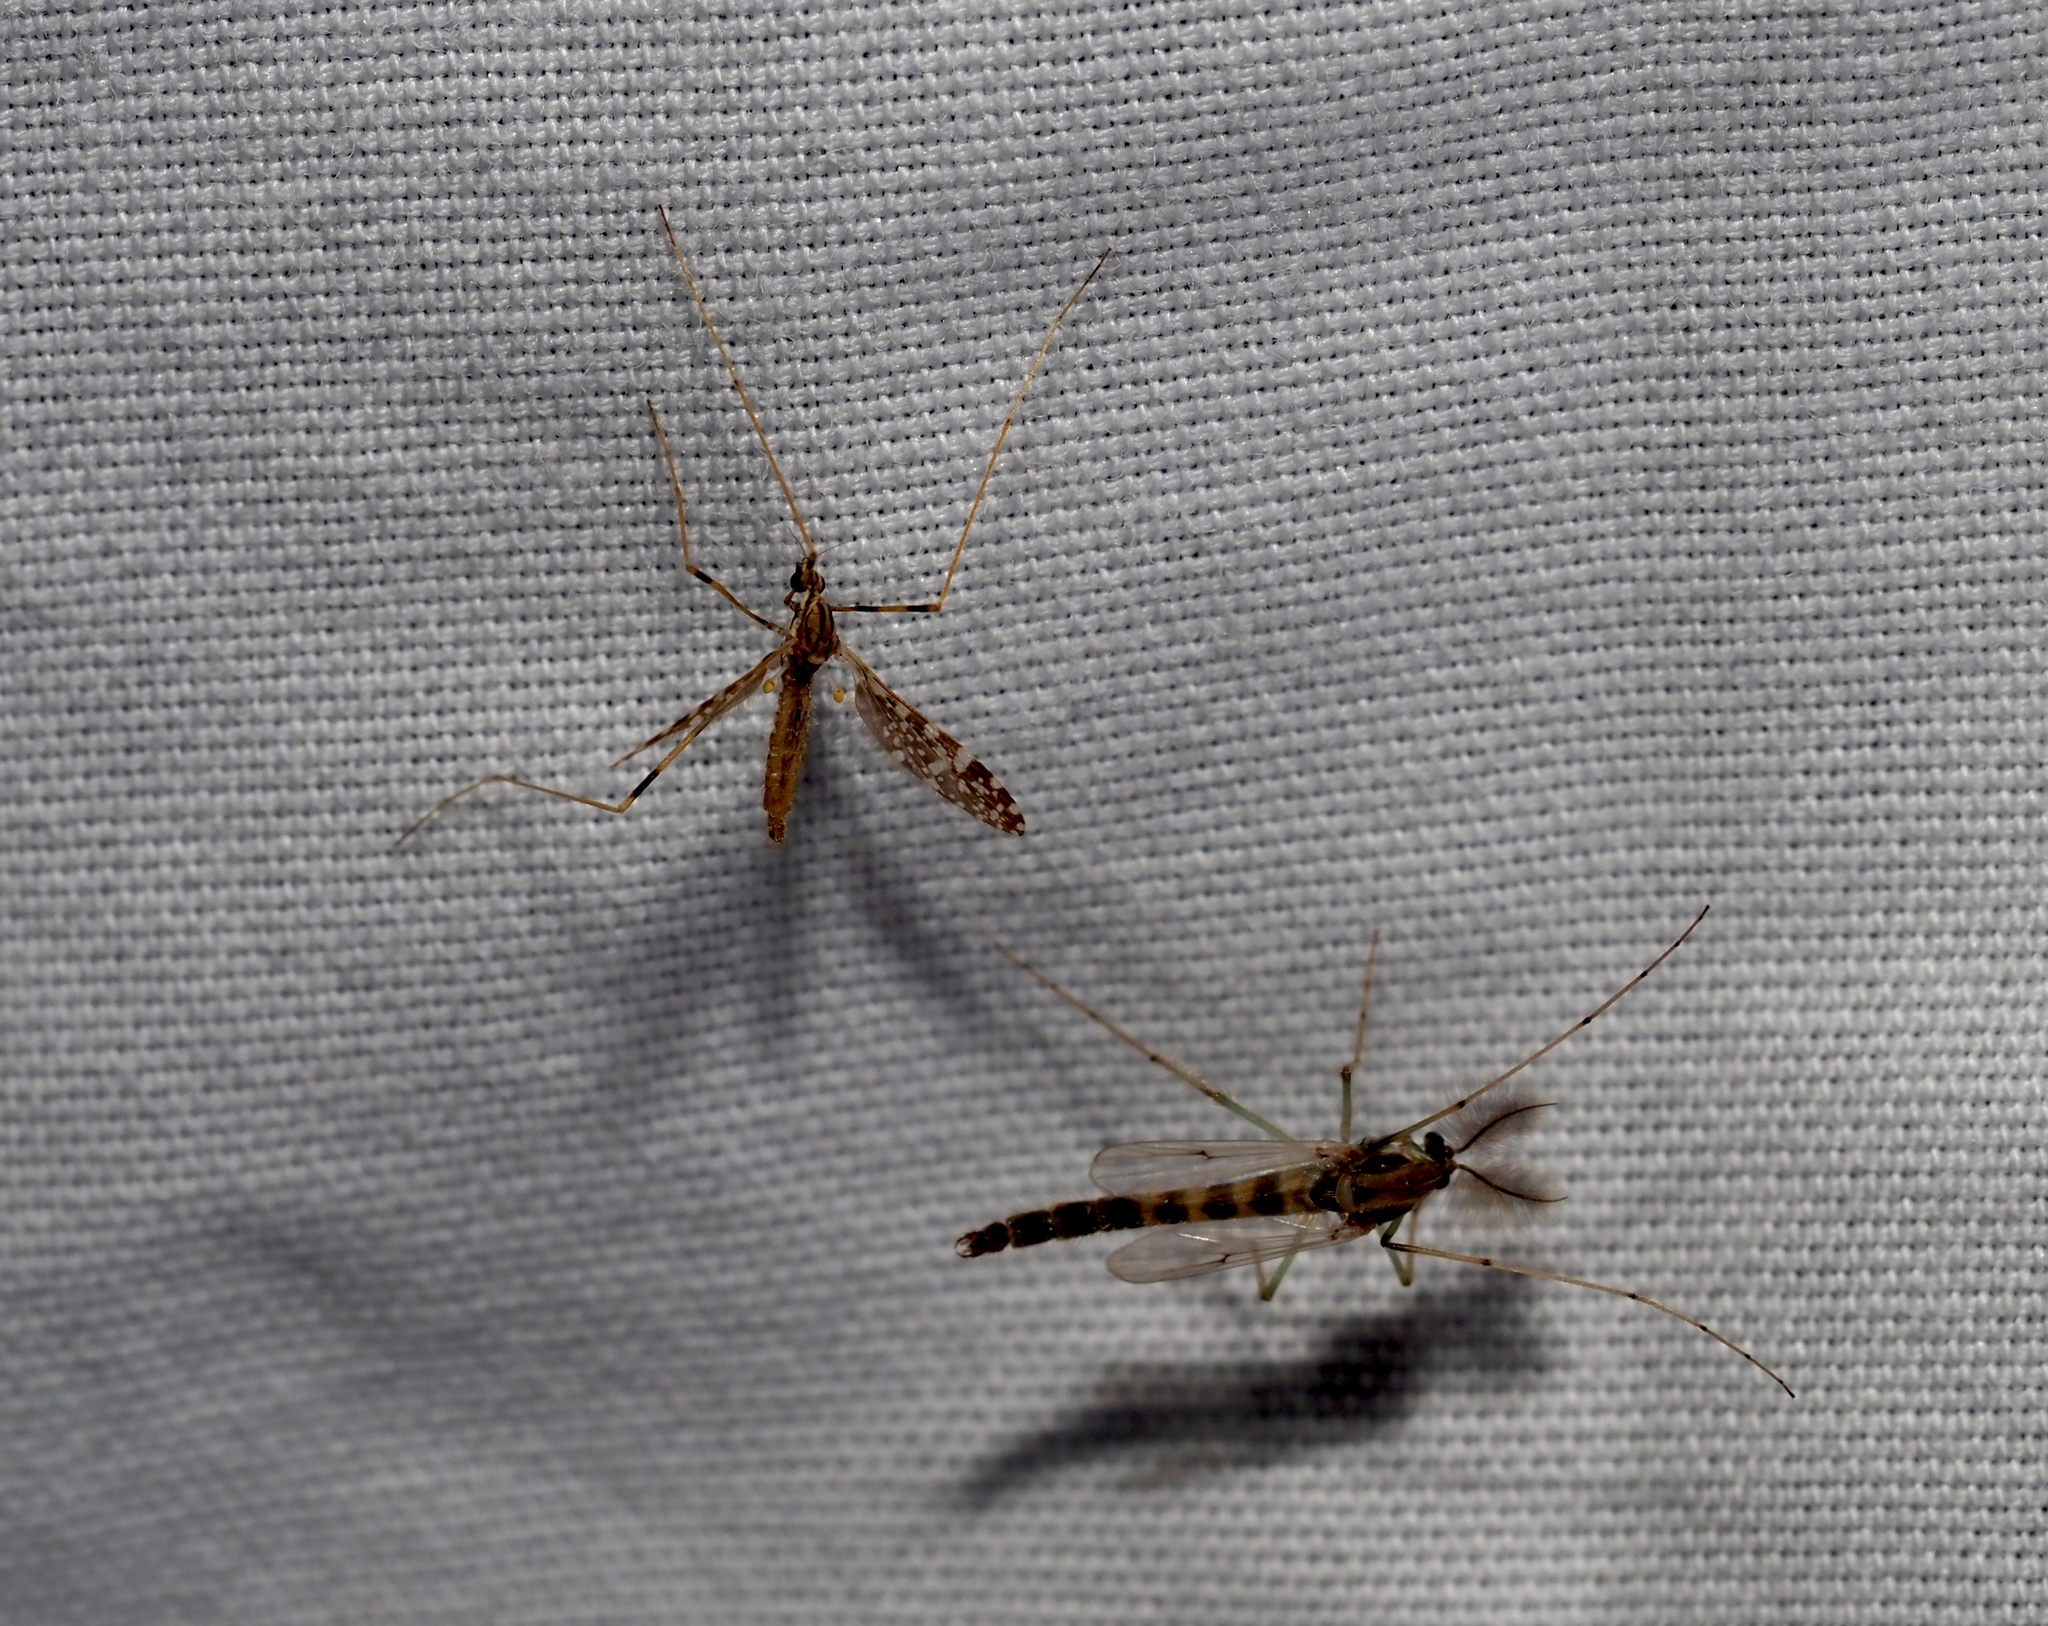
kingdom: Animalia
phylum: Arthropoda
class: Insecta
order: Diptera
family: Limoniidae
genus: Erioptera
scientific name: Erioptera caliptera
